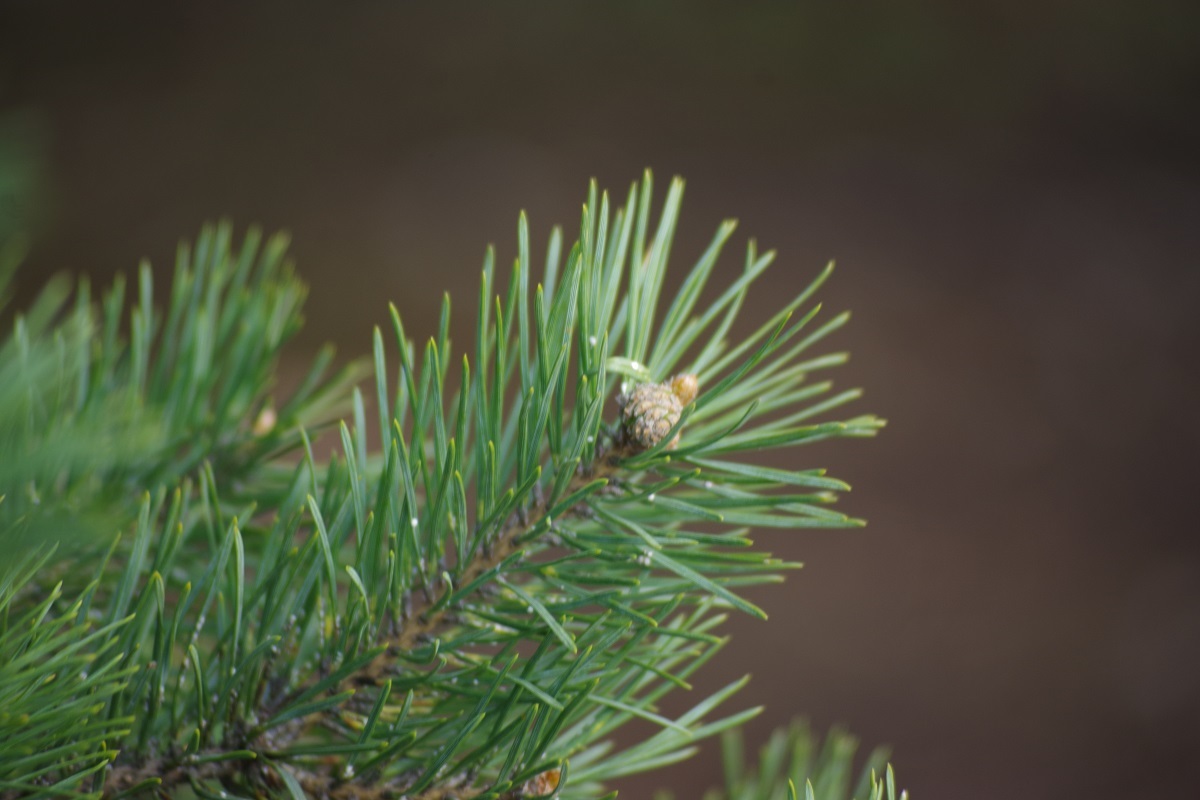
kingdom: Plantae
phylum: Tracheophyta
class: Pinopsida
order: Pinales
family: Pinaceae
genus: Pinus
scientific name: Pinus sylvestris
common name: Scots pine
